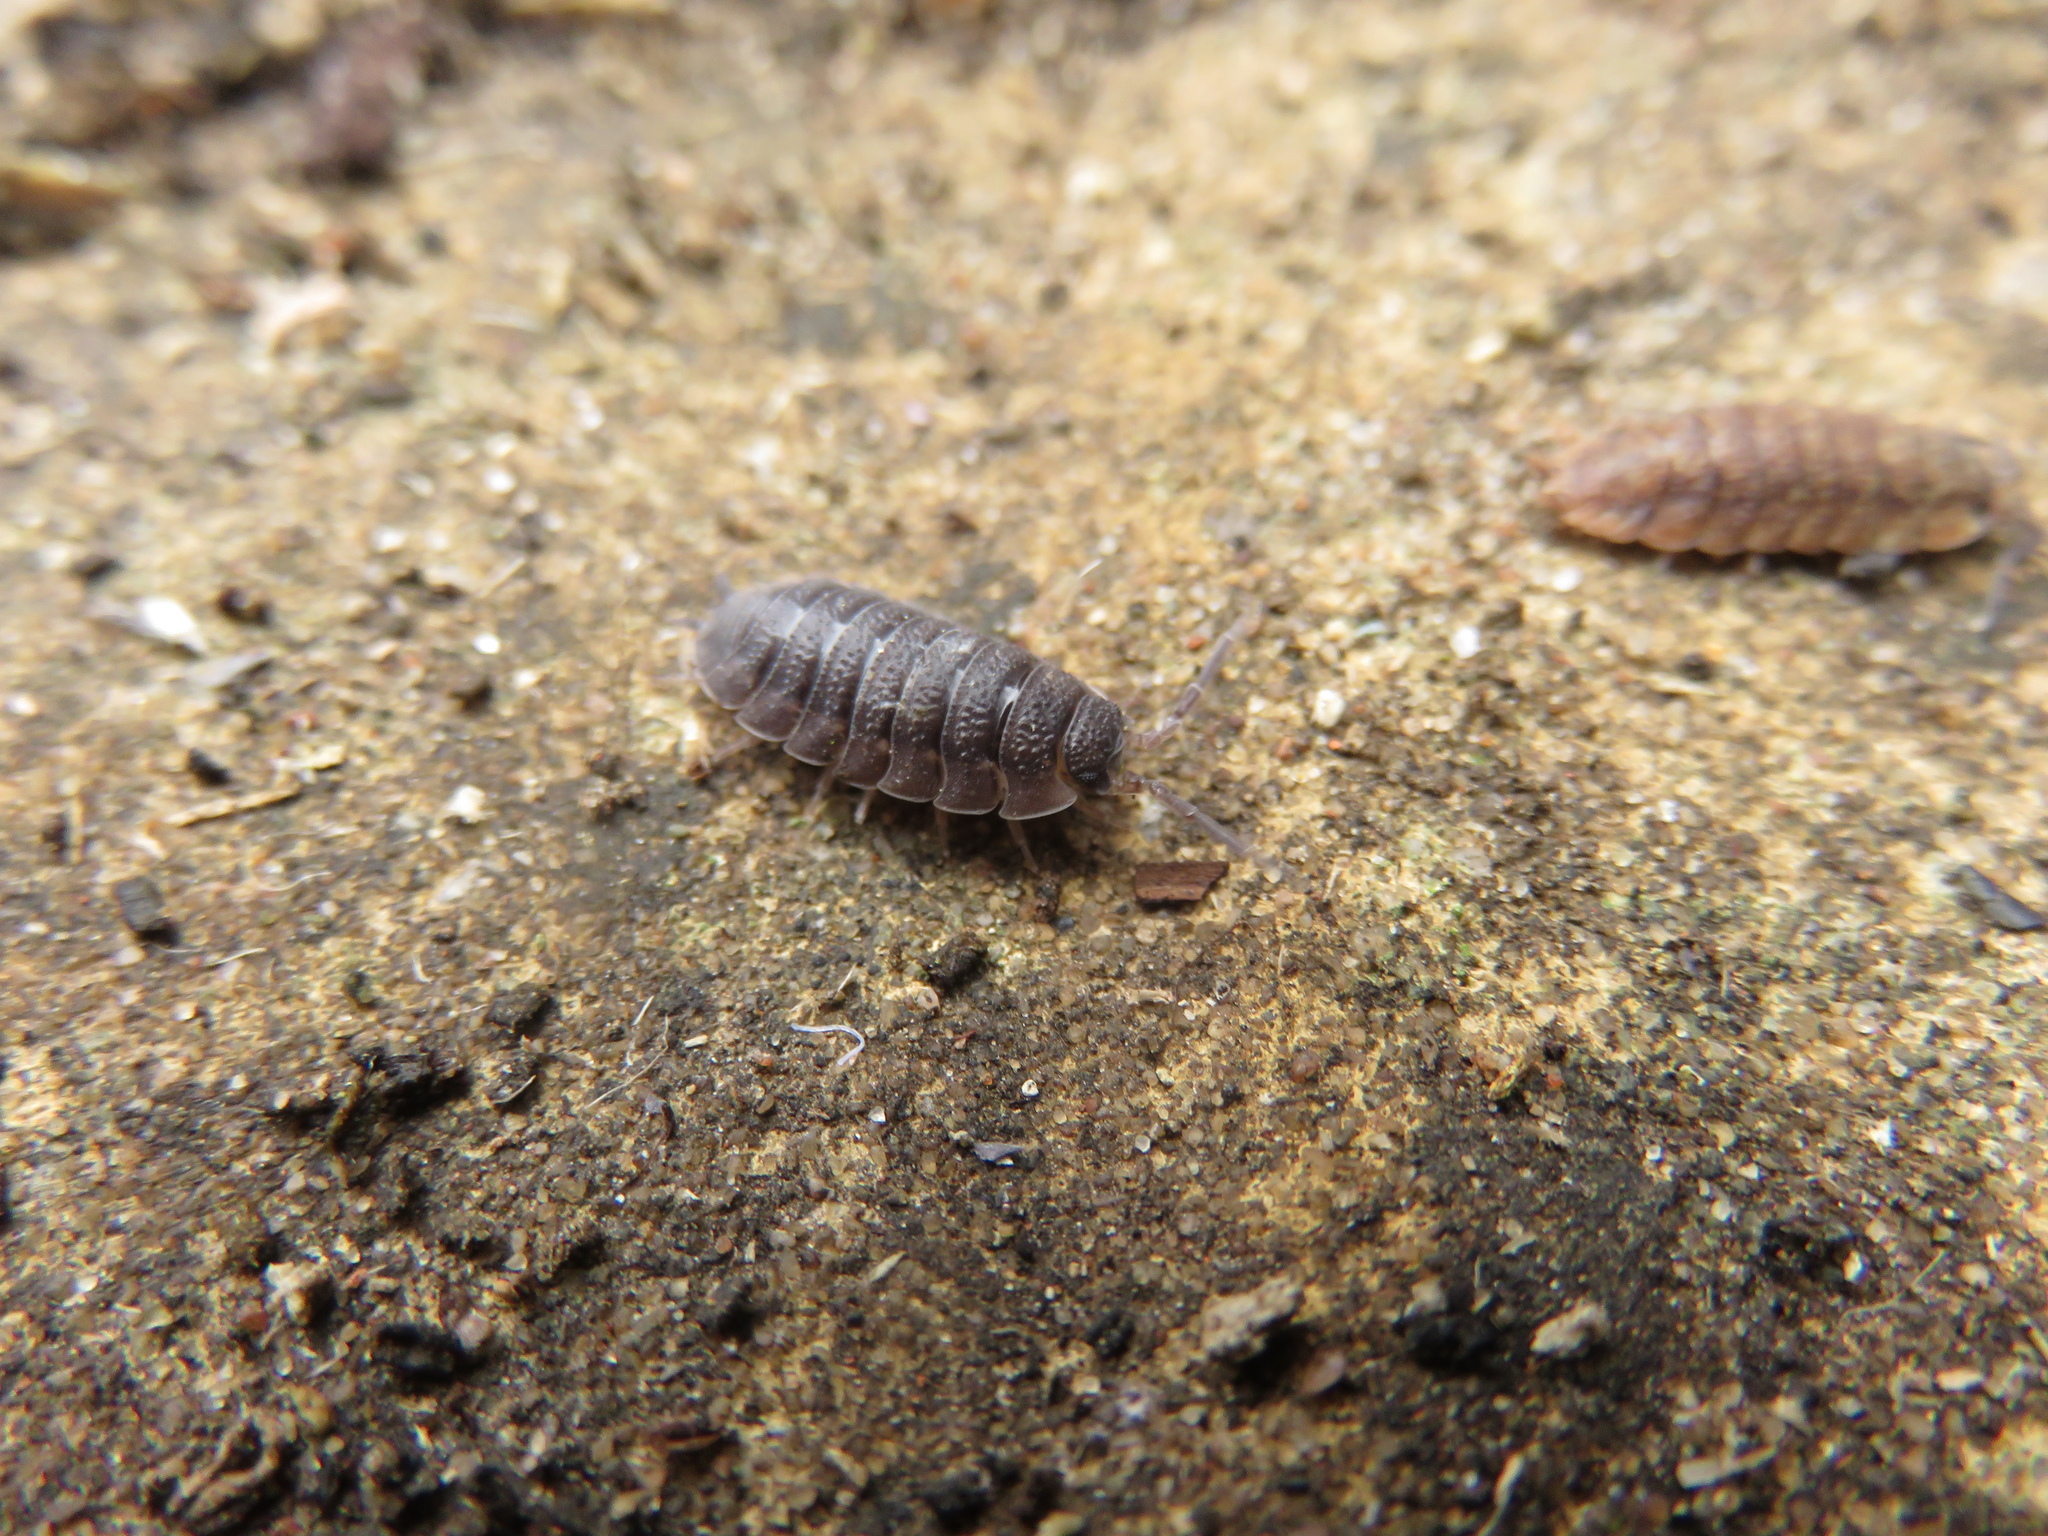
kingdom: Animalia
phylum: Arthropoda
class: Malacostraca
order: Isopoda
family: Porcellionidae
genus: Porcellio
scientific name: Porcellio scaber
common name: Common rough woodlouse
